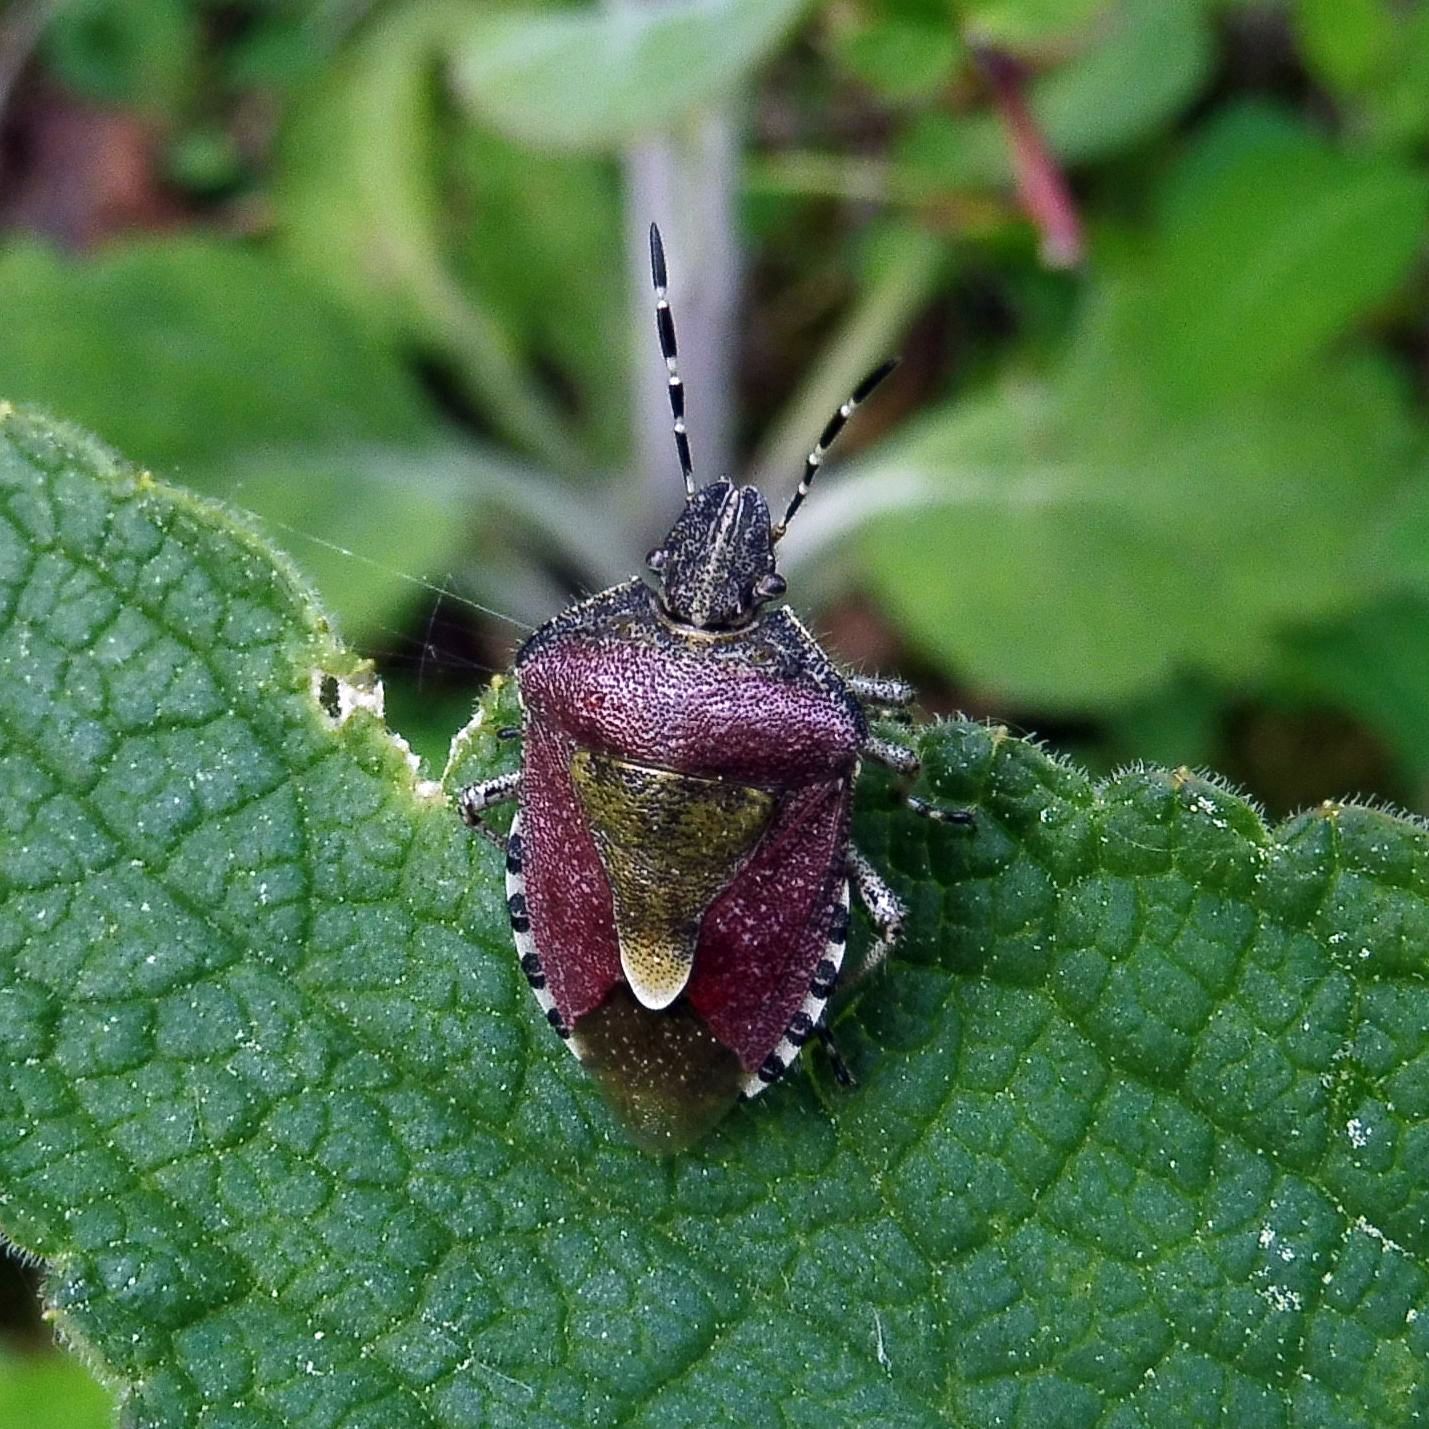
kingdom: Animalia
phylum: Arthropoda
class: Insecta
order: Hemiptera
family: Pentatomidae
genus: Dolycoris
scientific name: Dolycoris baccarum
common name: Sloe bug
